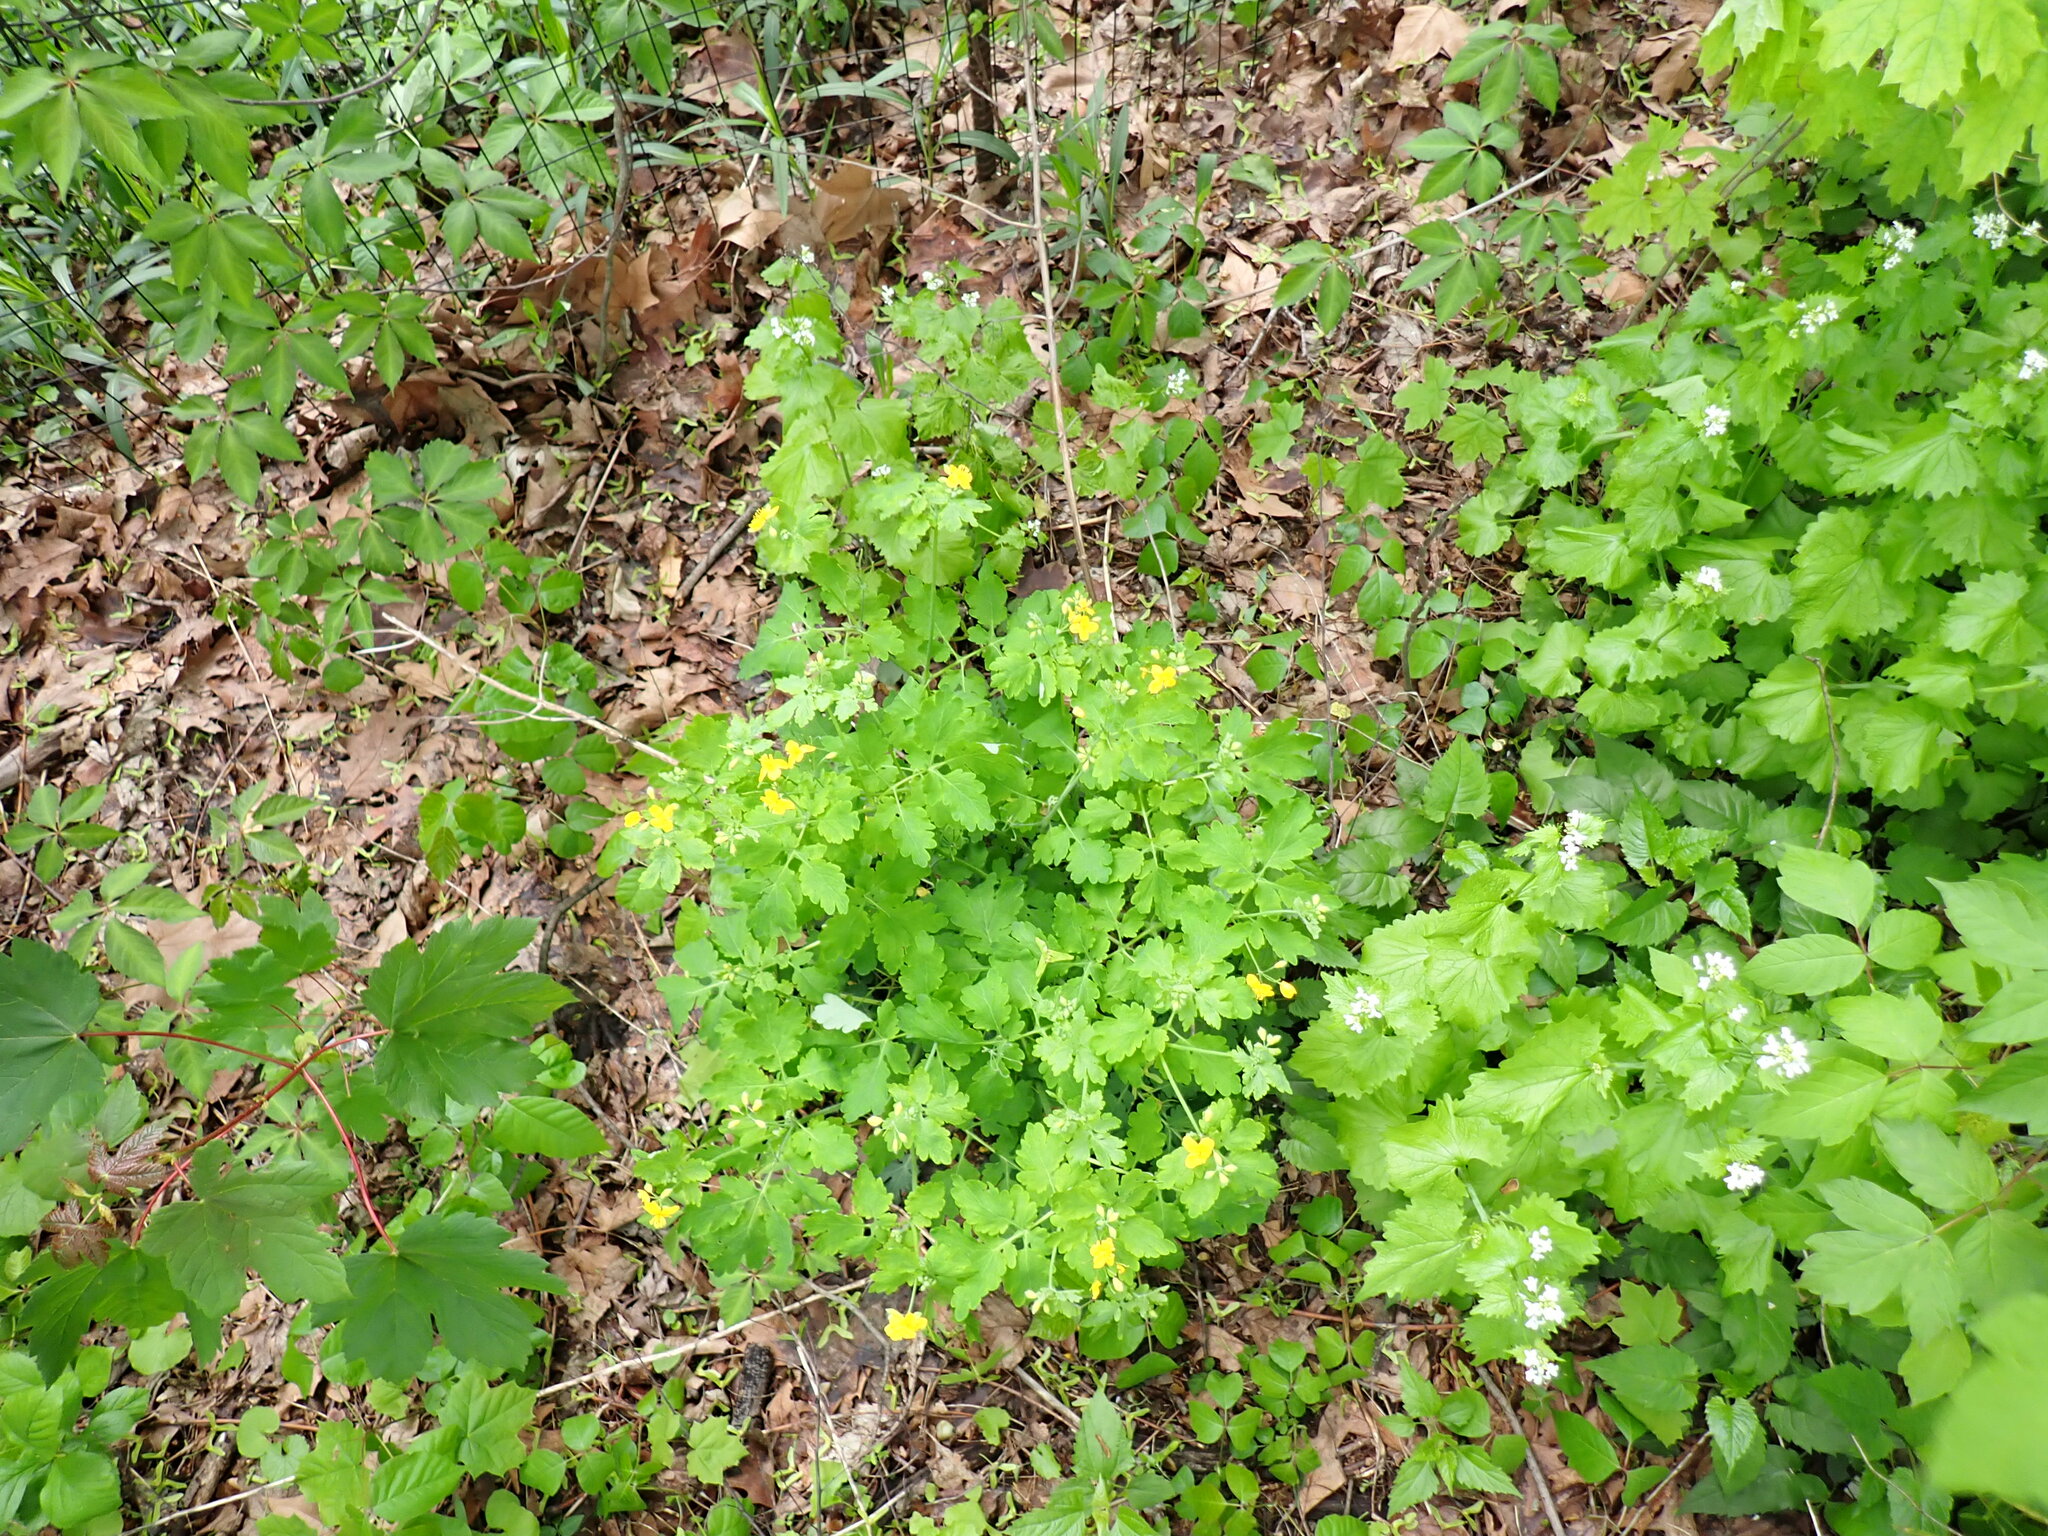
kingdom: Plantae
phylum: Tracheophyta
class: Magnoliopsida
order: Ranunculales
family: Papaveraceae
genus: Chelidonium
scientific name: Chelidonium majus
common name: Greater celandine
